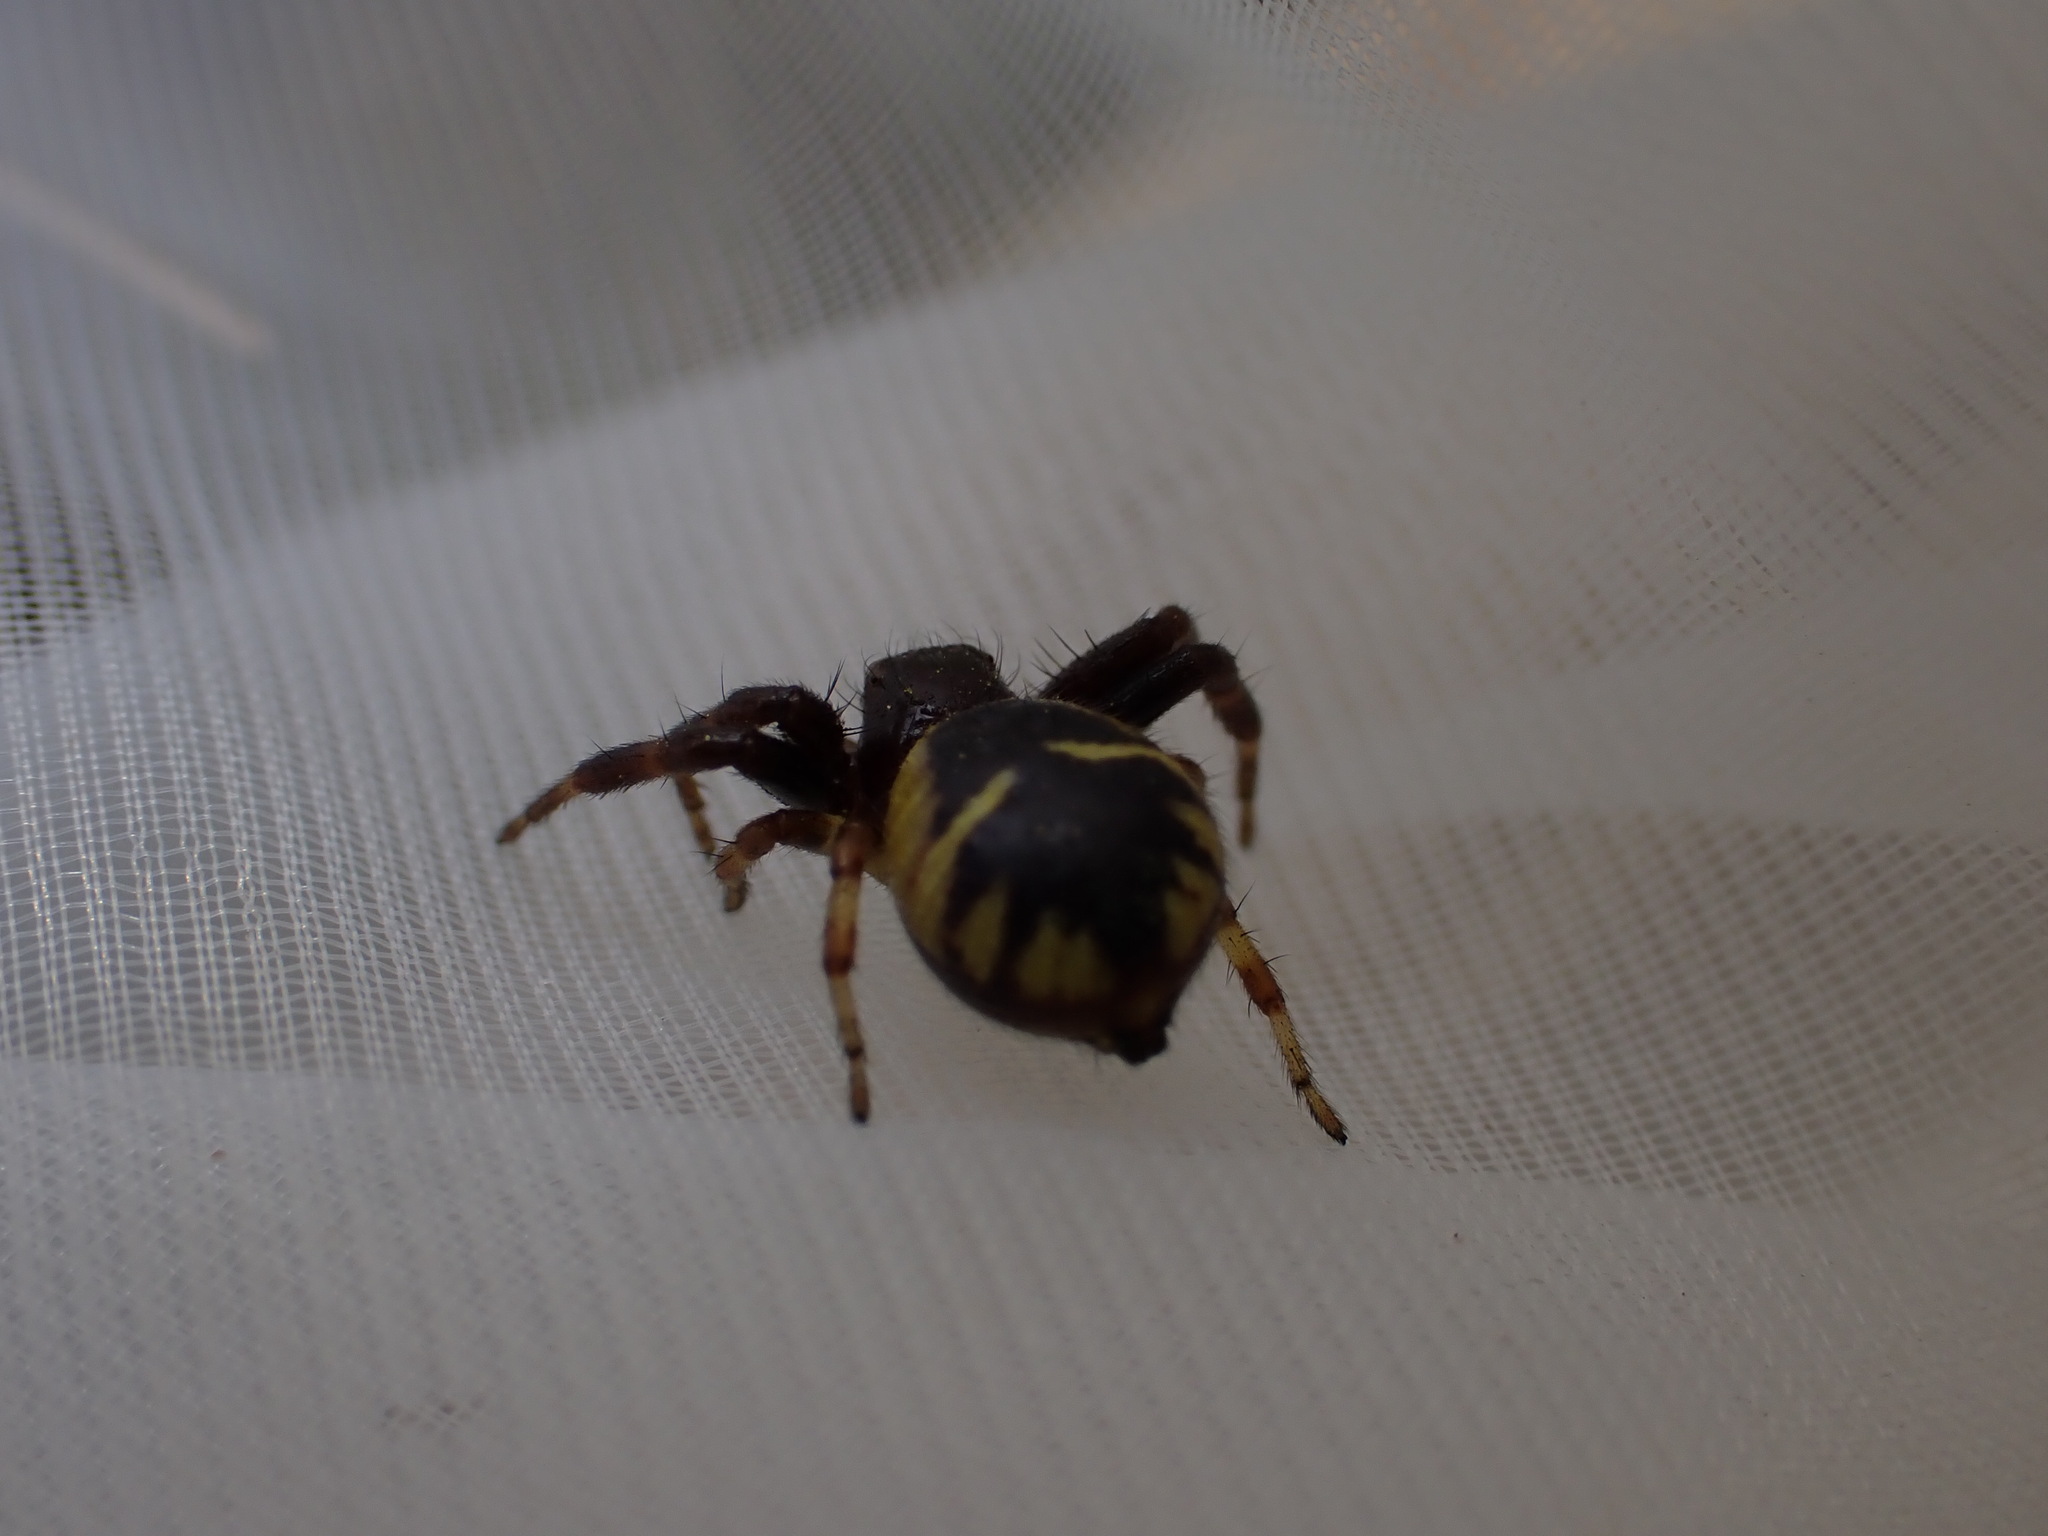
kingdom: Animalia
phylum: Arthropoda
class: Arachnida
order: Araneae
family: Thomisidae
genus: Synema
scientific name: Synema globosum
